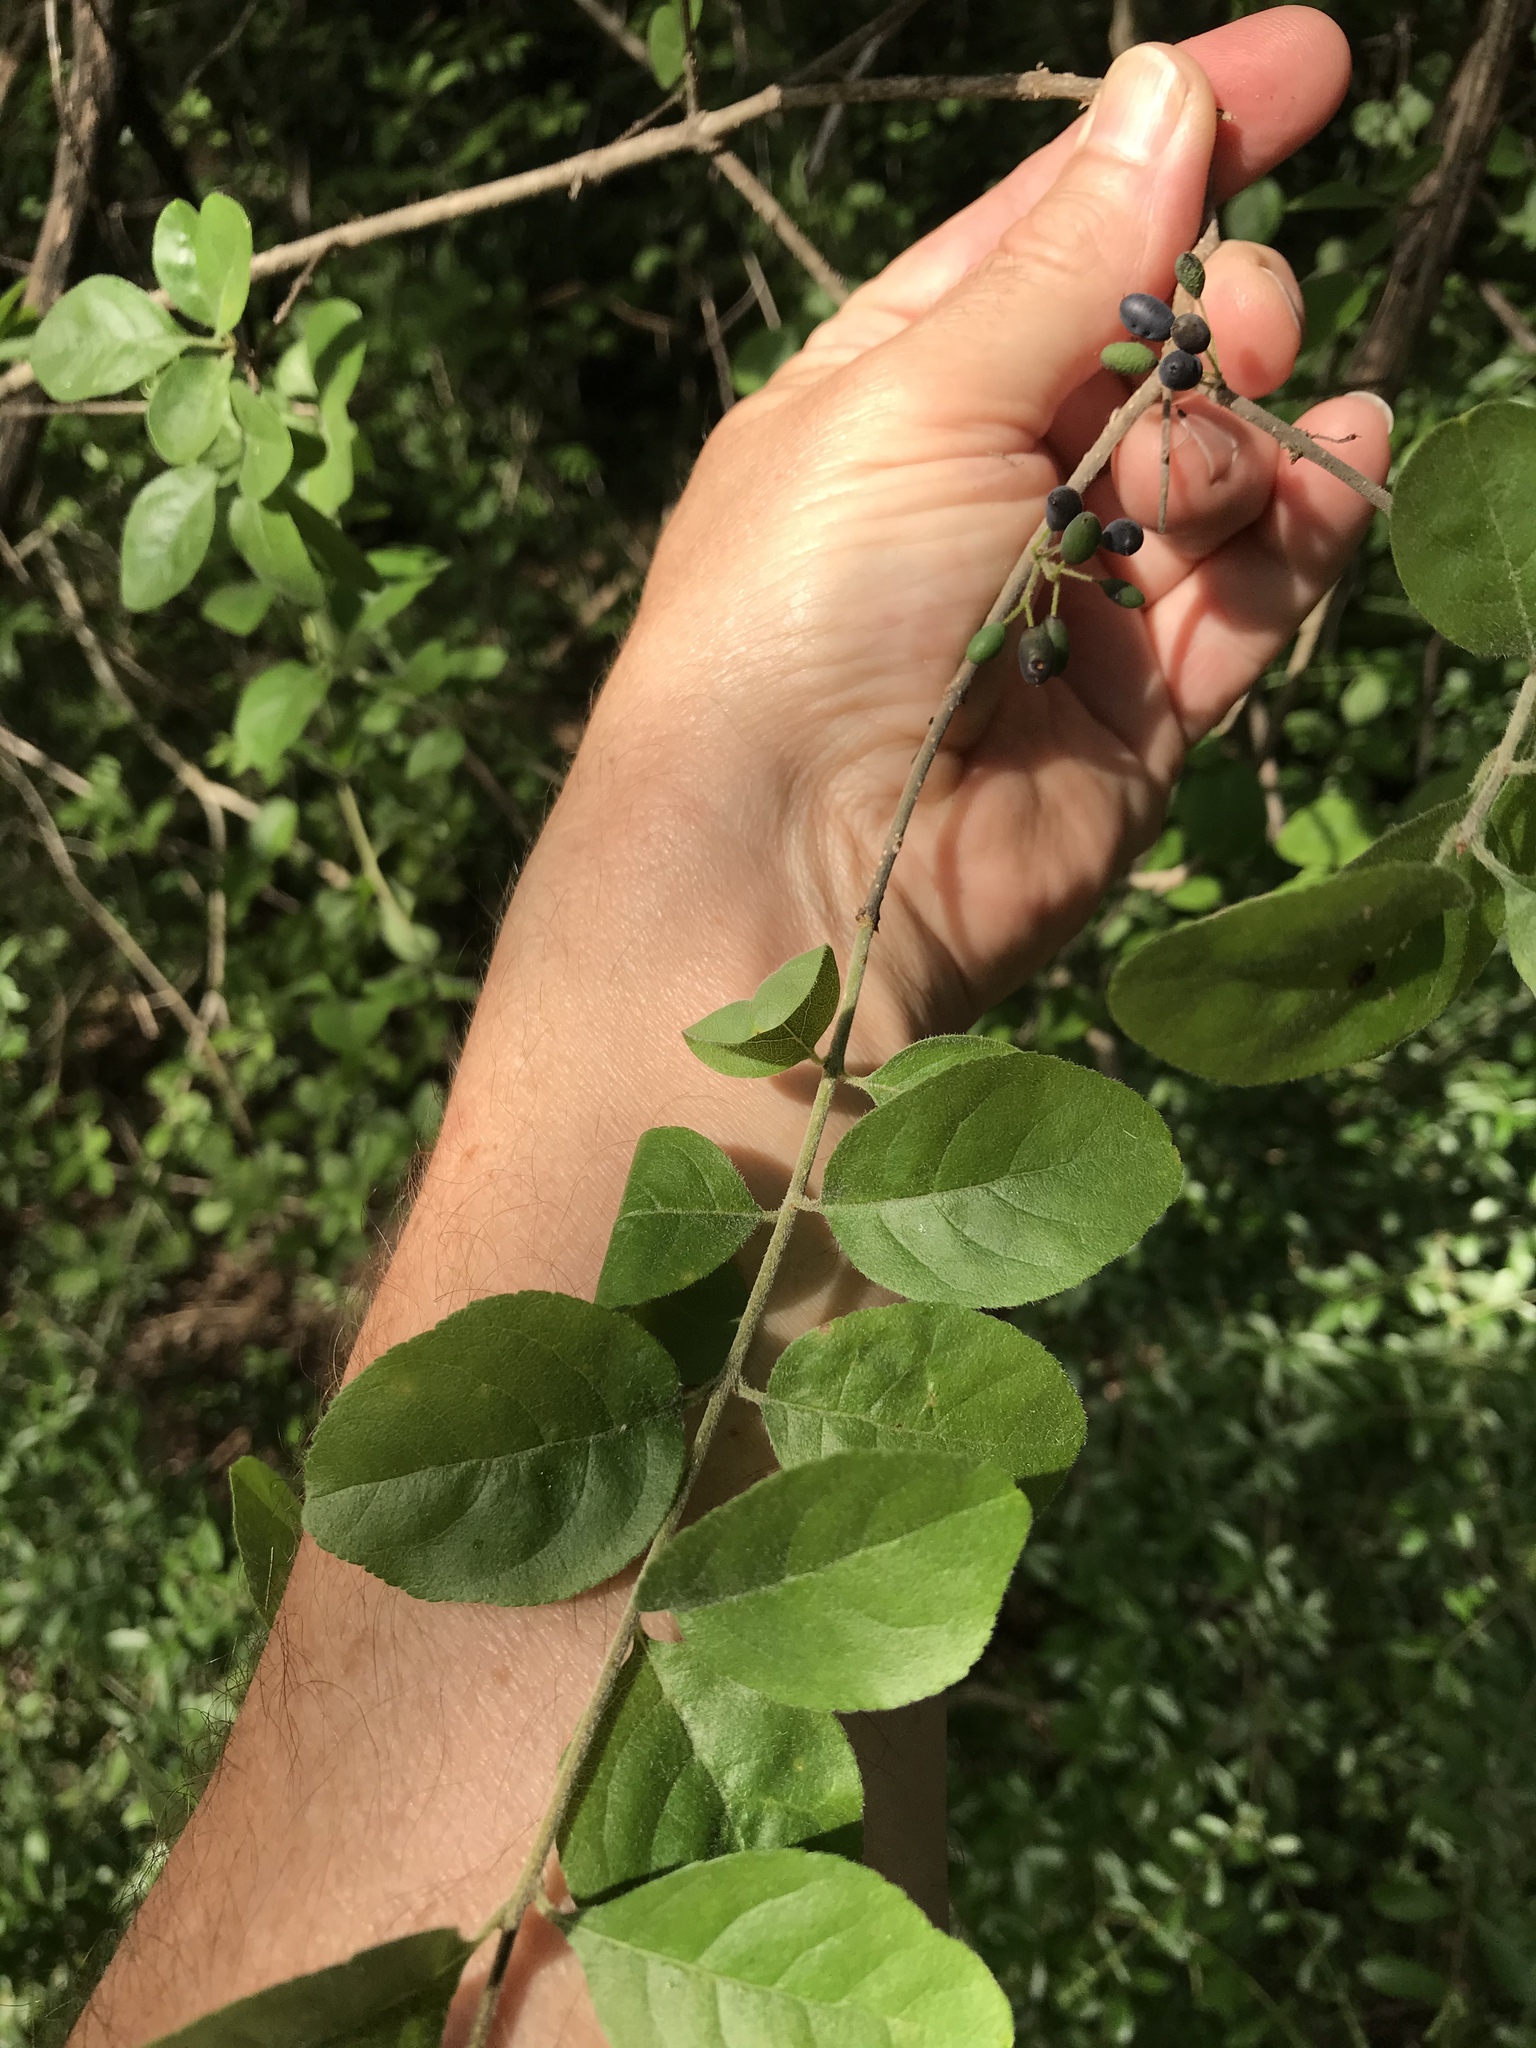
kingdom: Plantae
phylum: Tracheophyta
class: Magnoliopsida
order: Lamiales
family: Oleaceae
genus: Forestiera
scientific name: Forestiera pubescens
